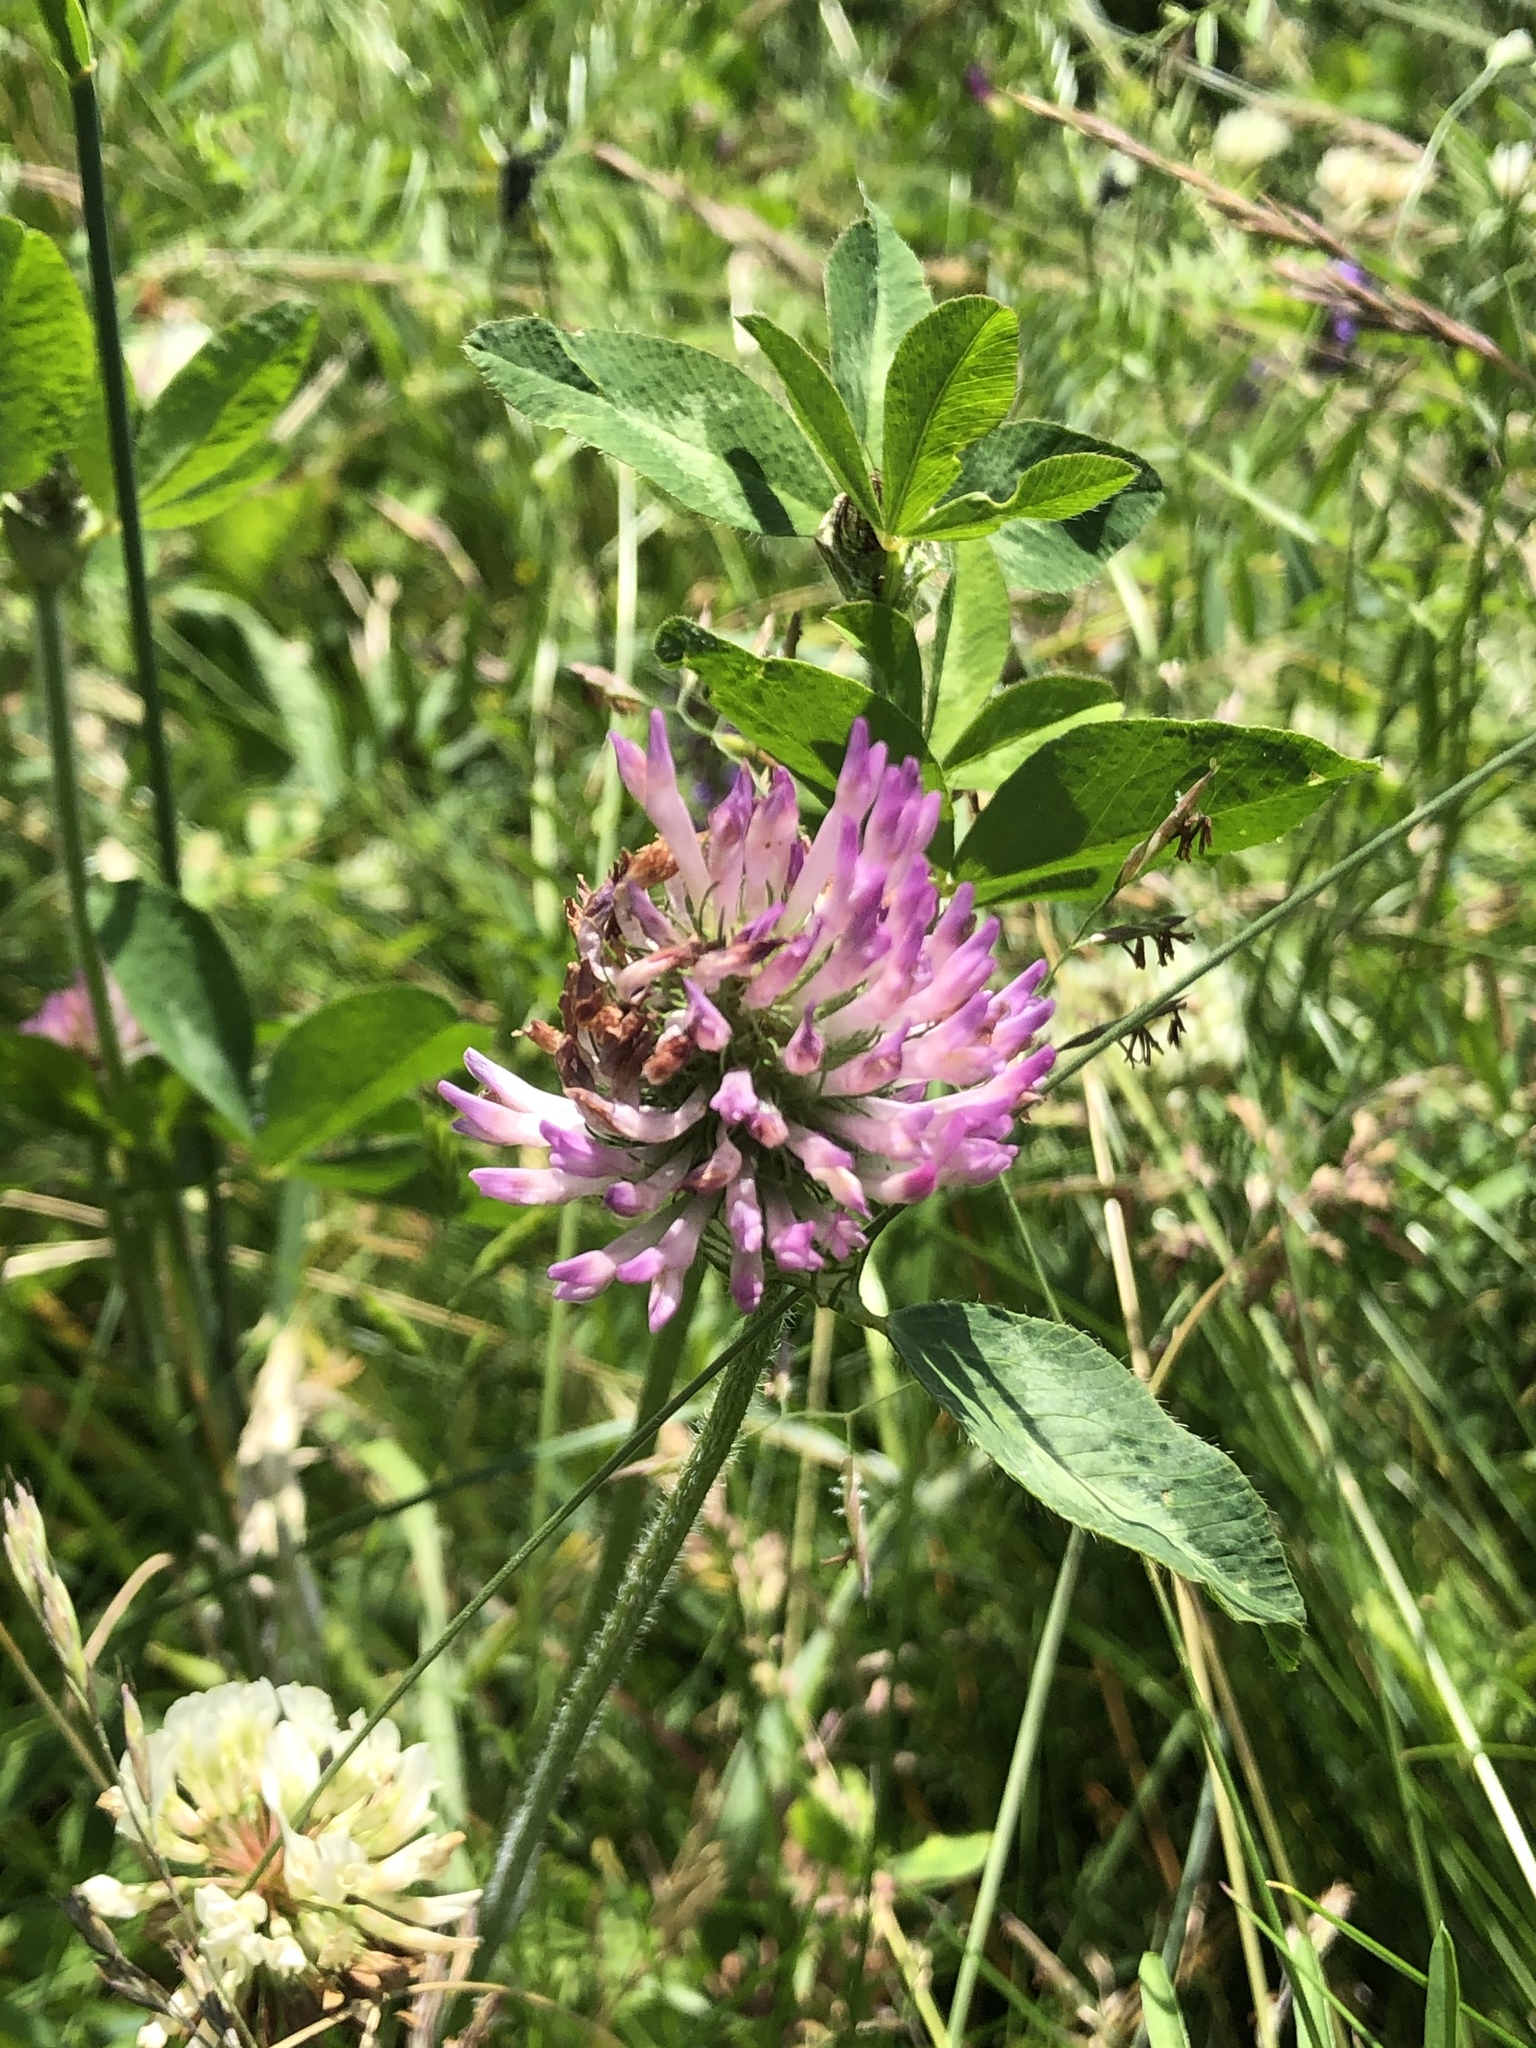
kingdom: Plantae
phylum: Tracheophyta
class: Magnoliopsida
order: Fabales
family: Fabaceae
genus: Trifolium
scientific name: Trifolium pratense
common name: Red clover
